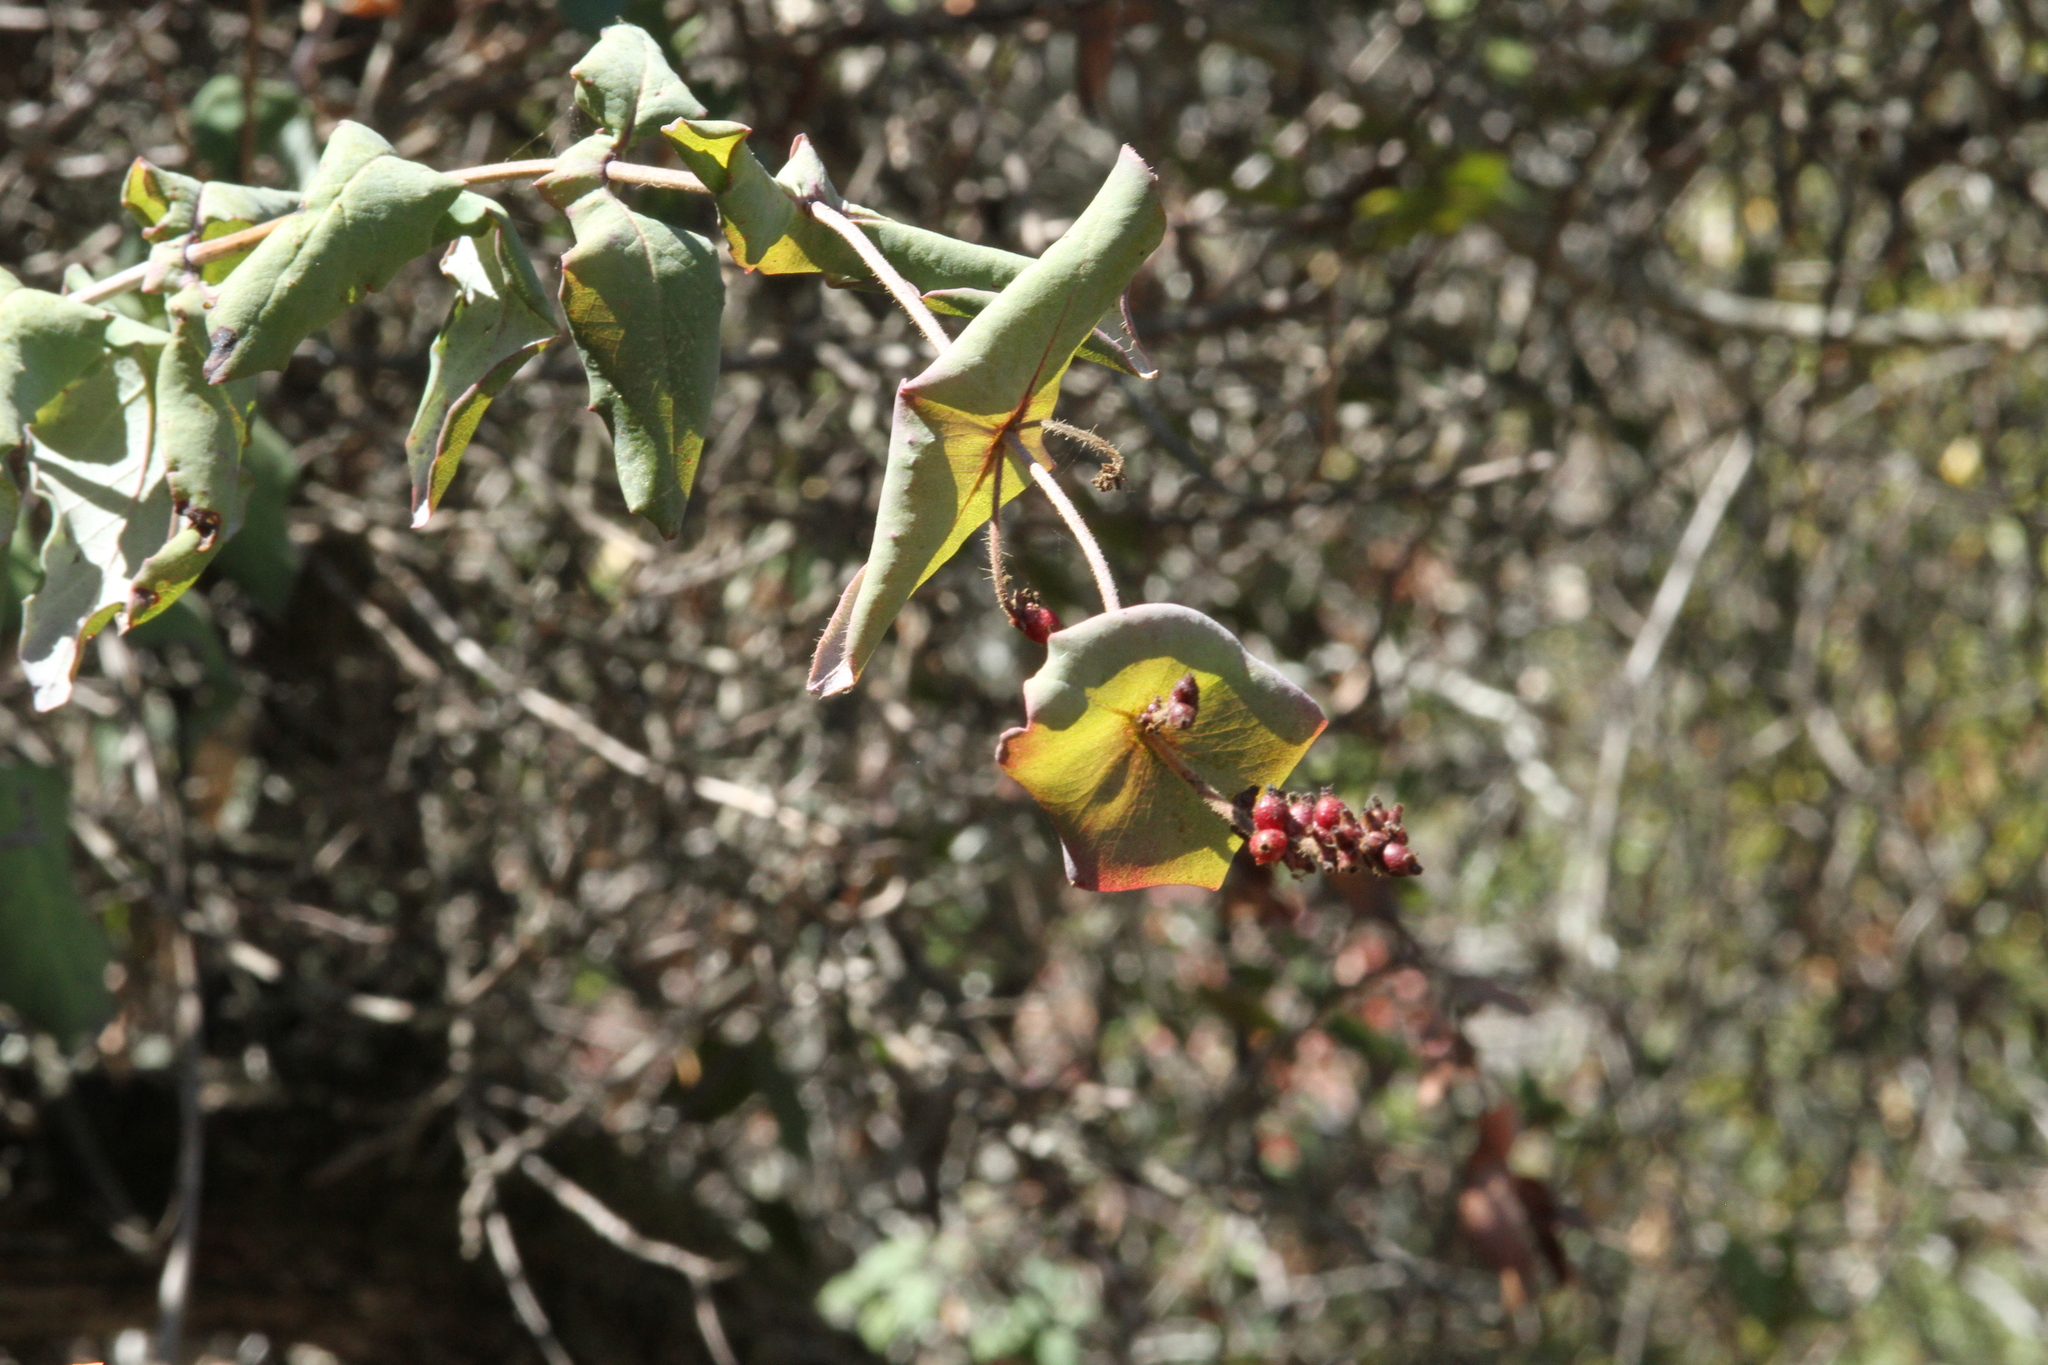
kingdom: Plantae
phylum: Tracheophyta
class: Magnoliopsida
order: Dipsacales
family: Caprifoliaceae
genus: Lonicera
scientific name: Lonicera hispidula
